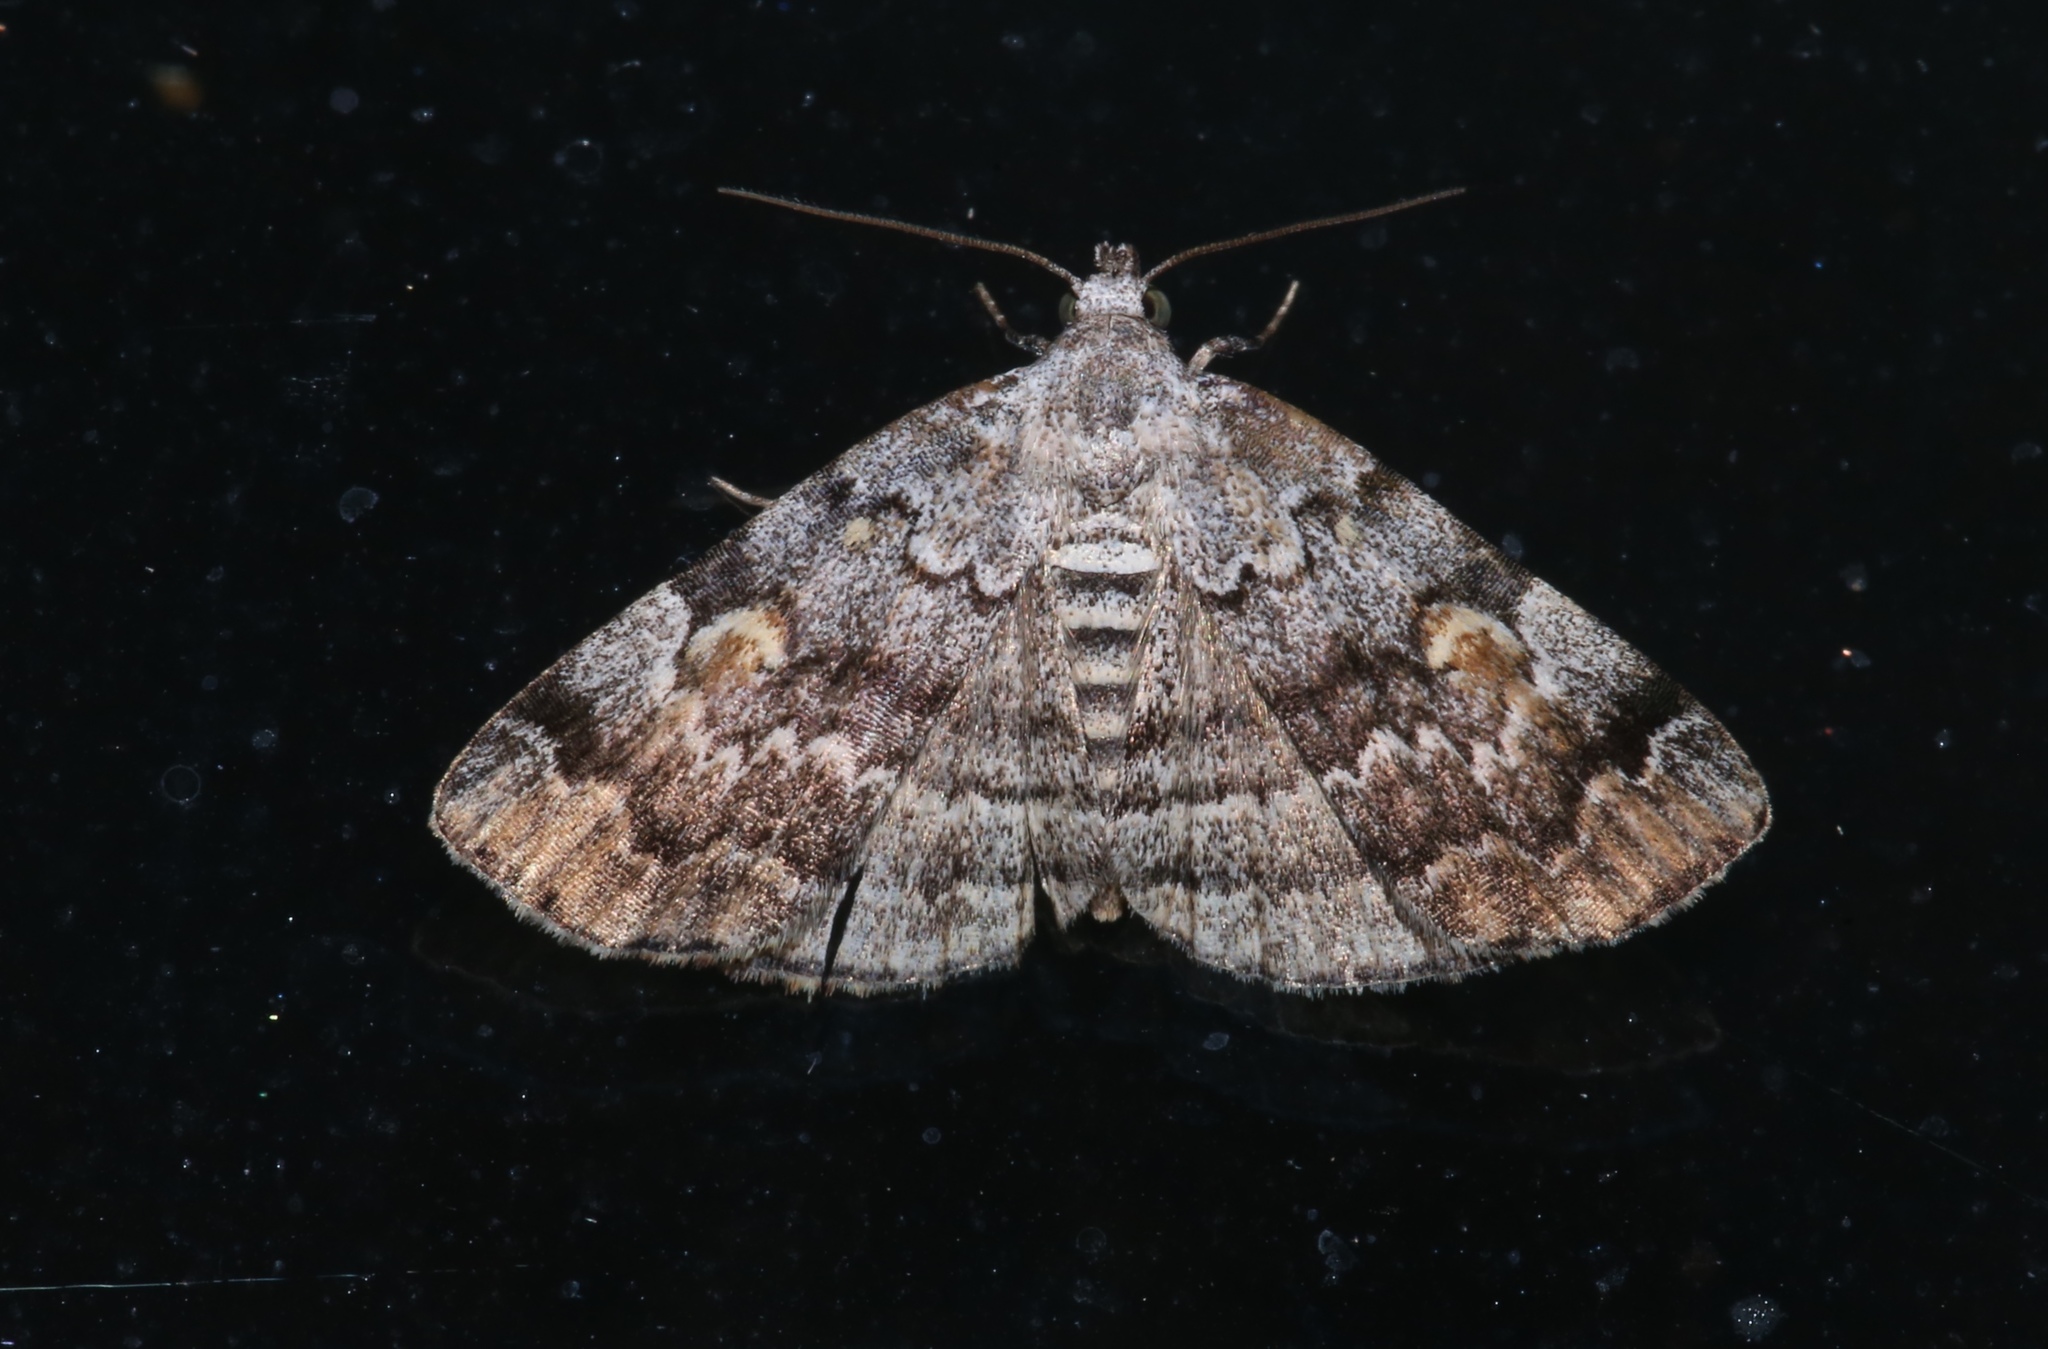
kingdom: Animalia
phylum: Arthropoda
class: Insecta
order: Lepidoptera
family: Erebidae
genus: Idia
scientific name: Idia americalis
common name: American idia moth
